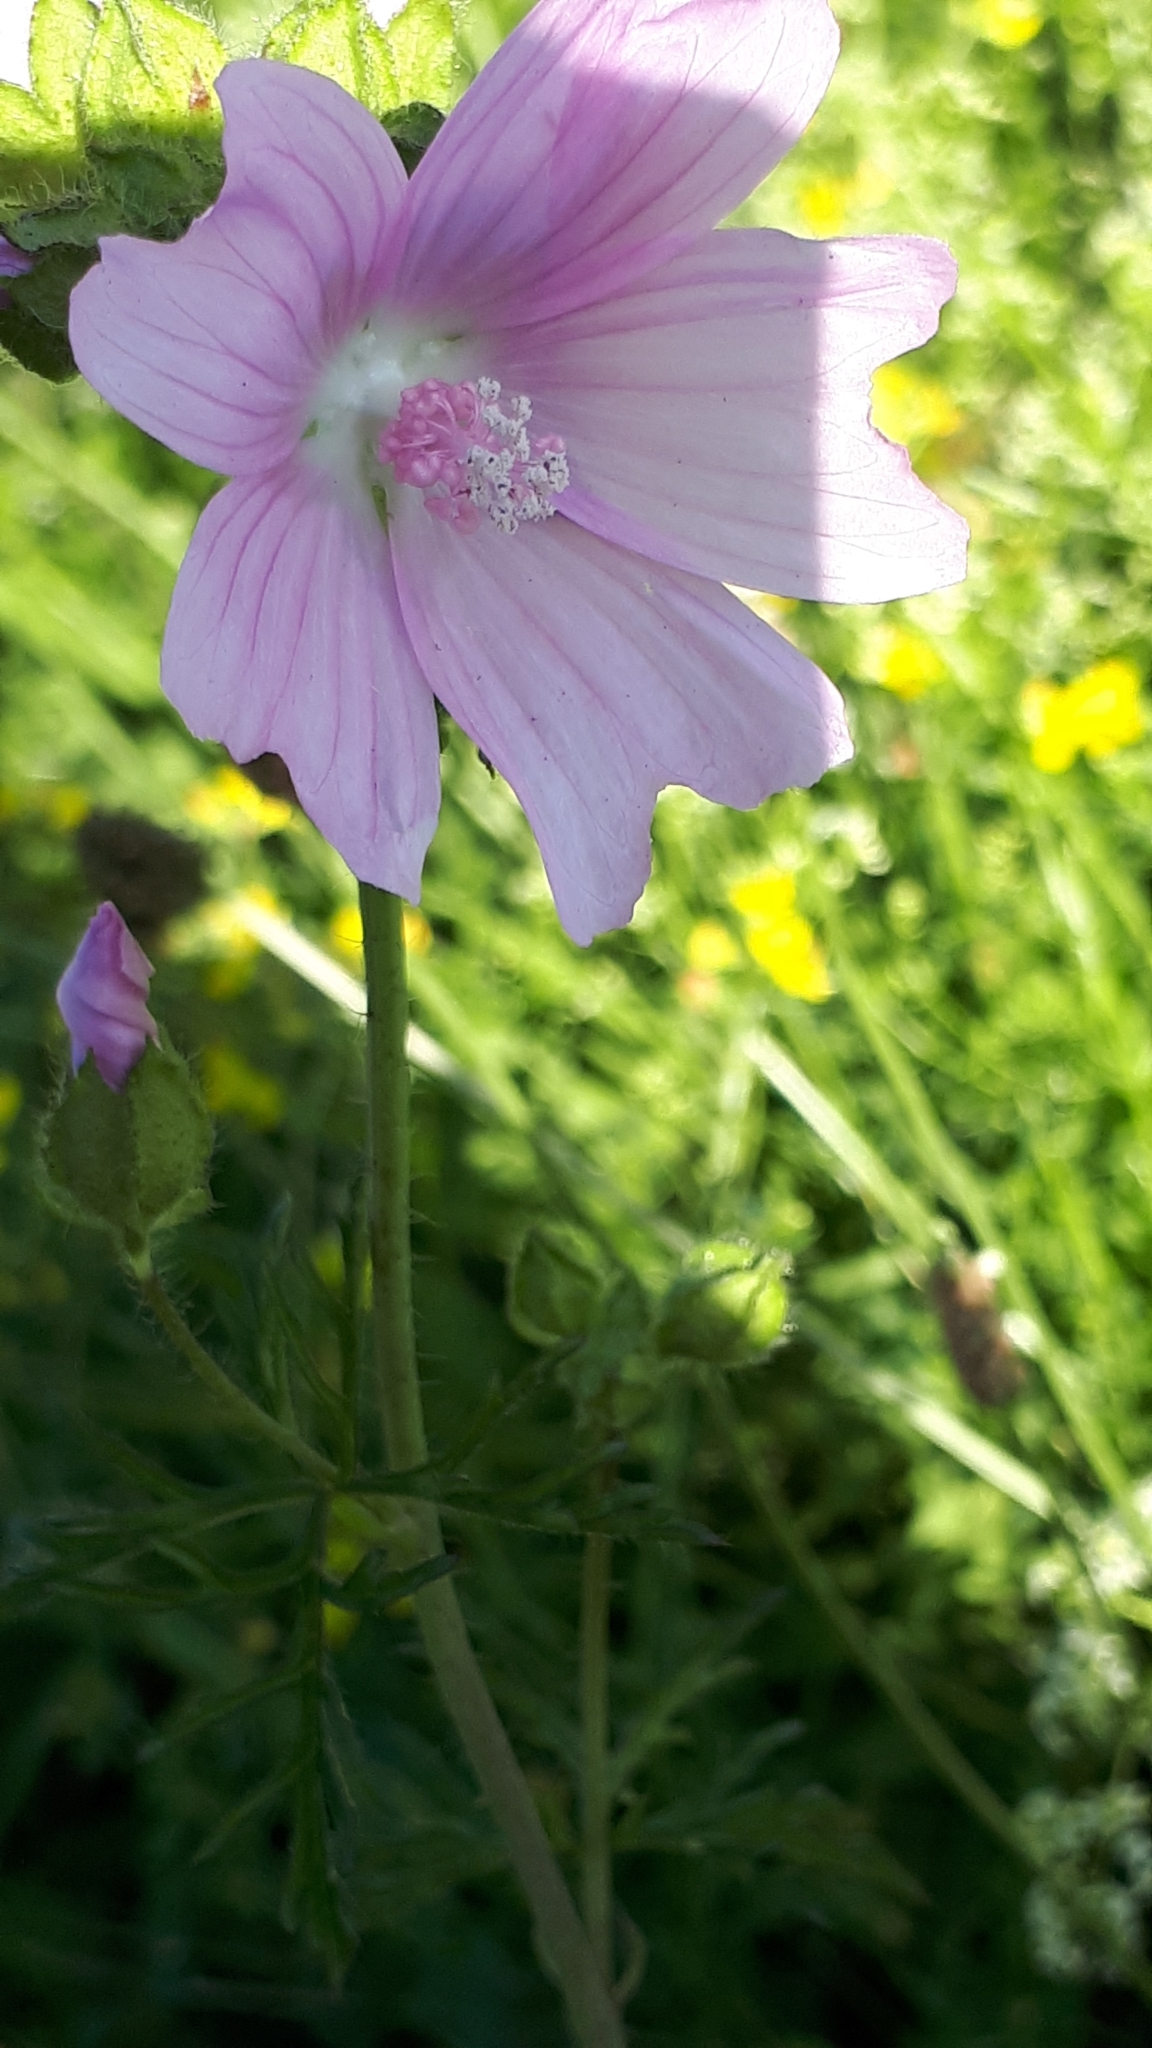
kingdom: Plantae
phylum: Tracheophyta
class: Magnoliopsida
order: Malvales
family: Malvaceae
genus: Malva
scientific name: Malva moschata
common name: Musk mallow
